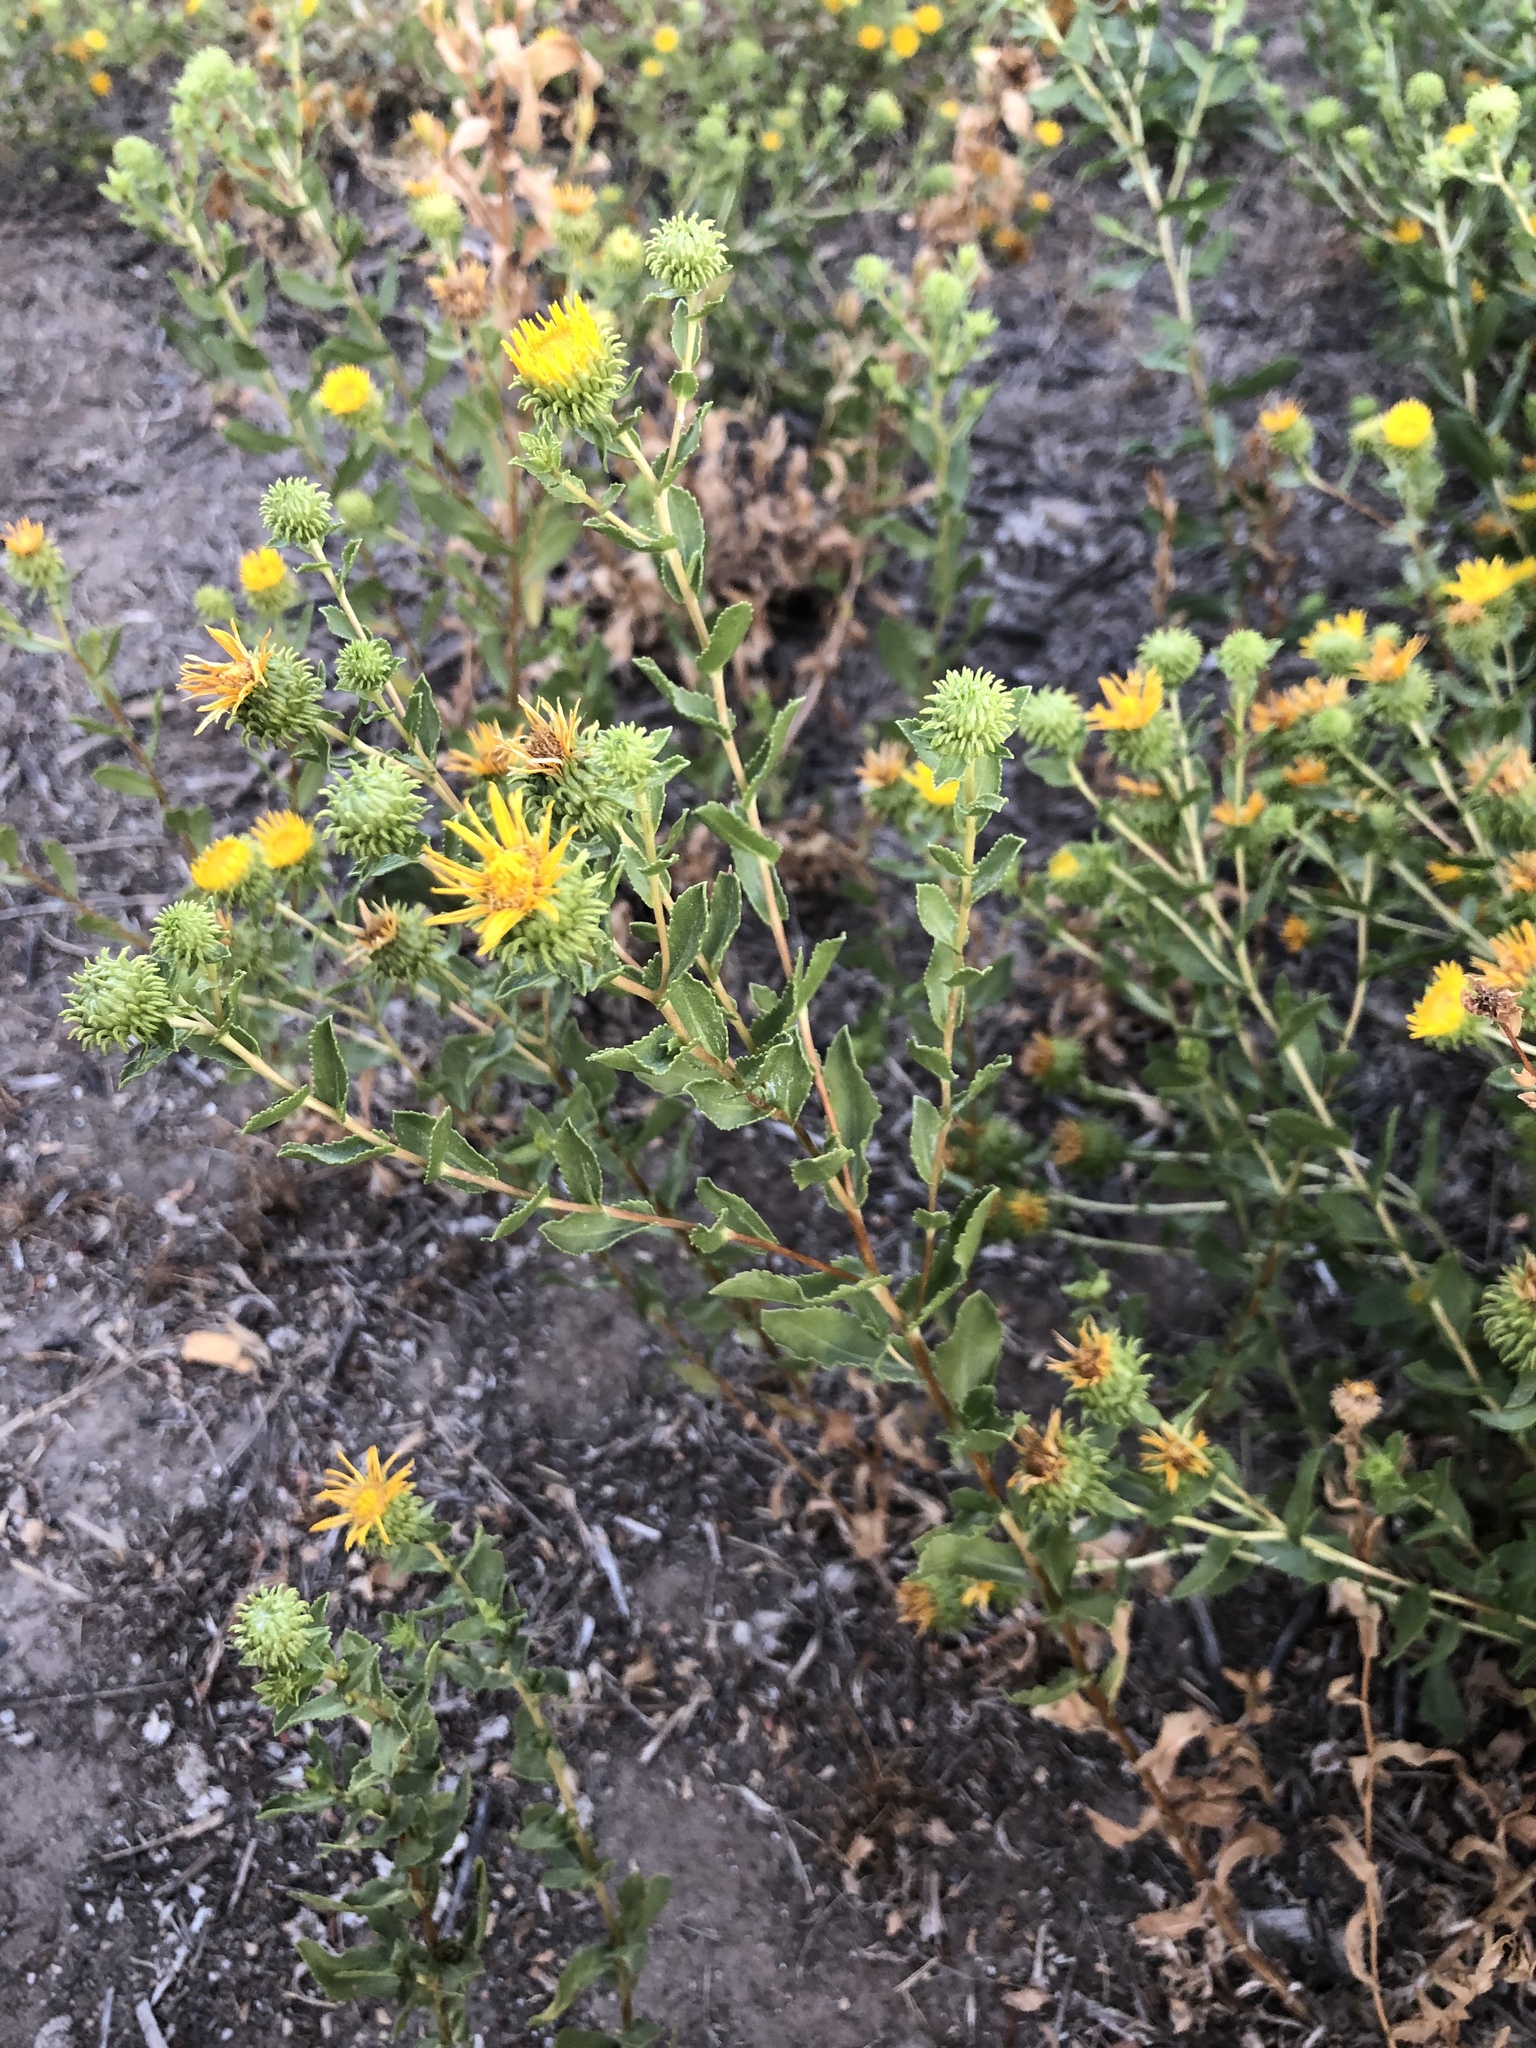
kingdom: Plantae
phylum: Tracheophyta
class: Magnoliopsida
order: Asterales
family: Asteraceae
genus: Grindelia
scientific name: Grindelia squarrosa
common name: Curly-cup gumweed
